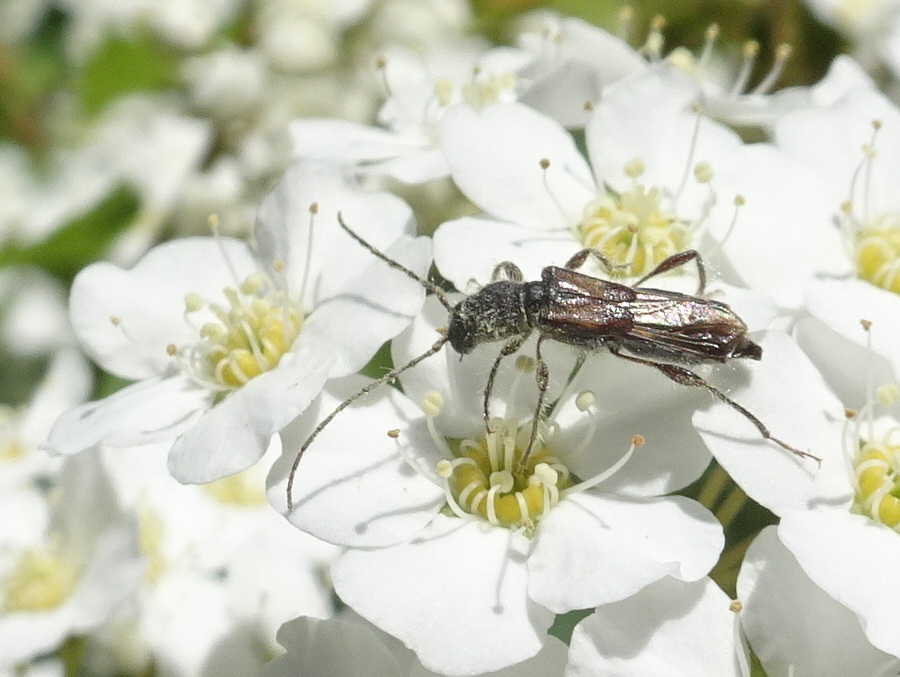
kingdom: Animalia
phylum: Arthropoda
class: Insecta
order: Coleoptera
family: Cerambycidae
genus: Molorchus
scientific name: Molorchus bimaculatus
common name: Bimaculate longhorn beetle
